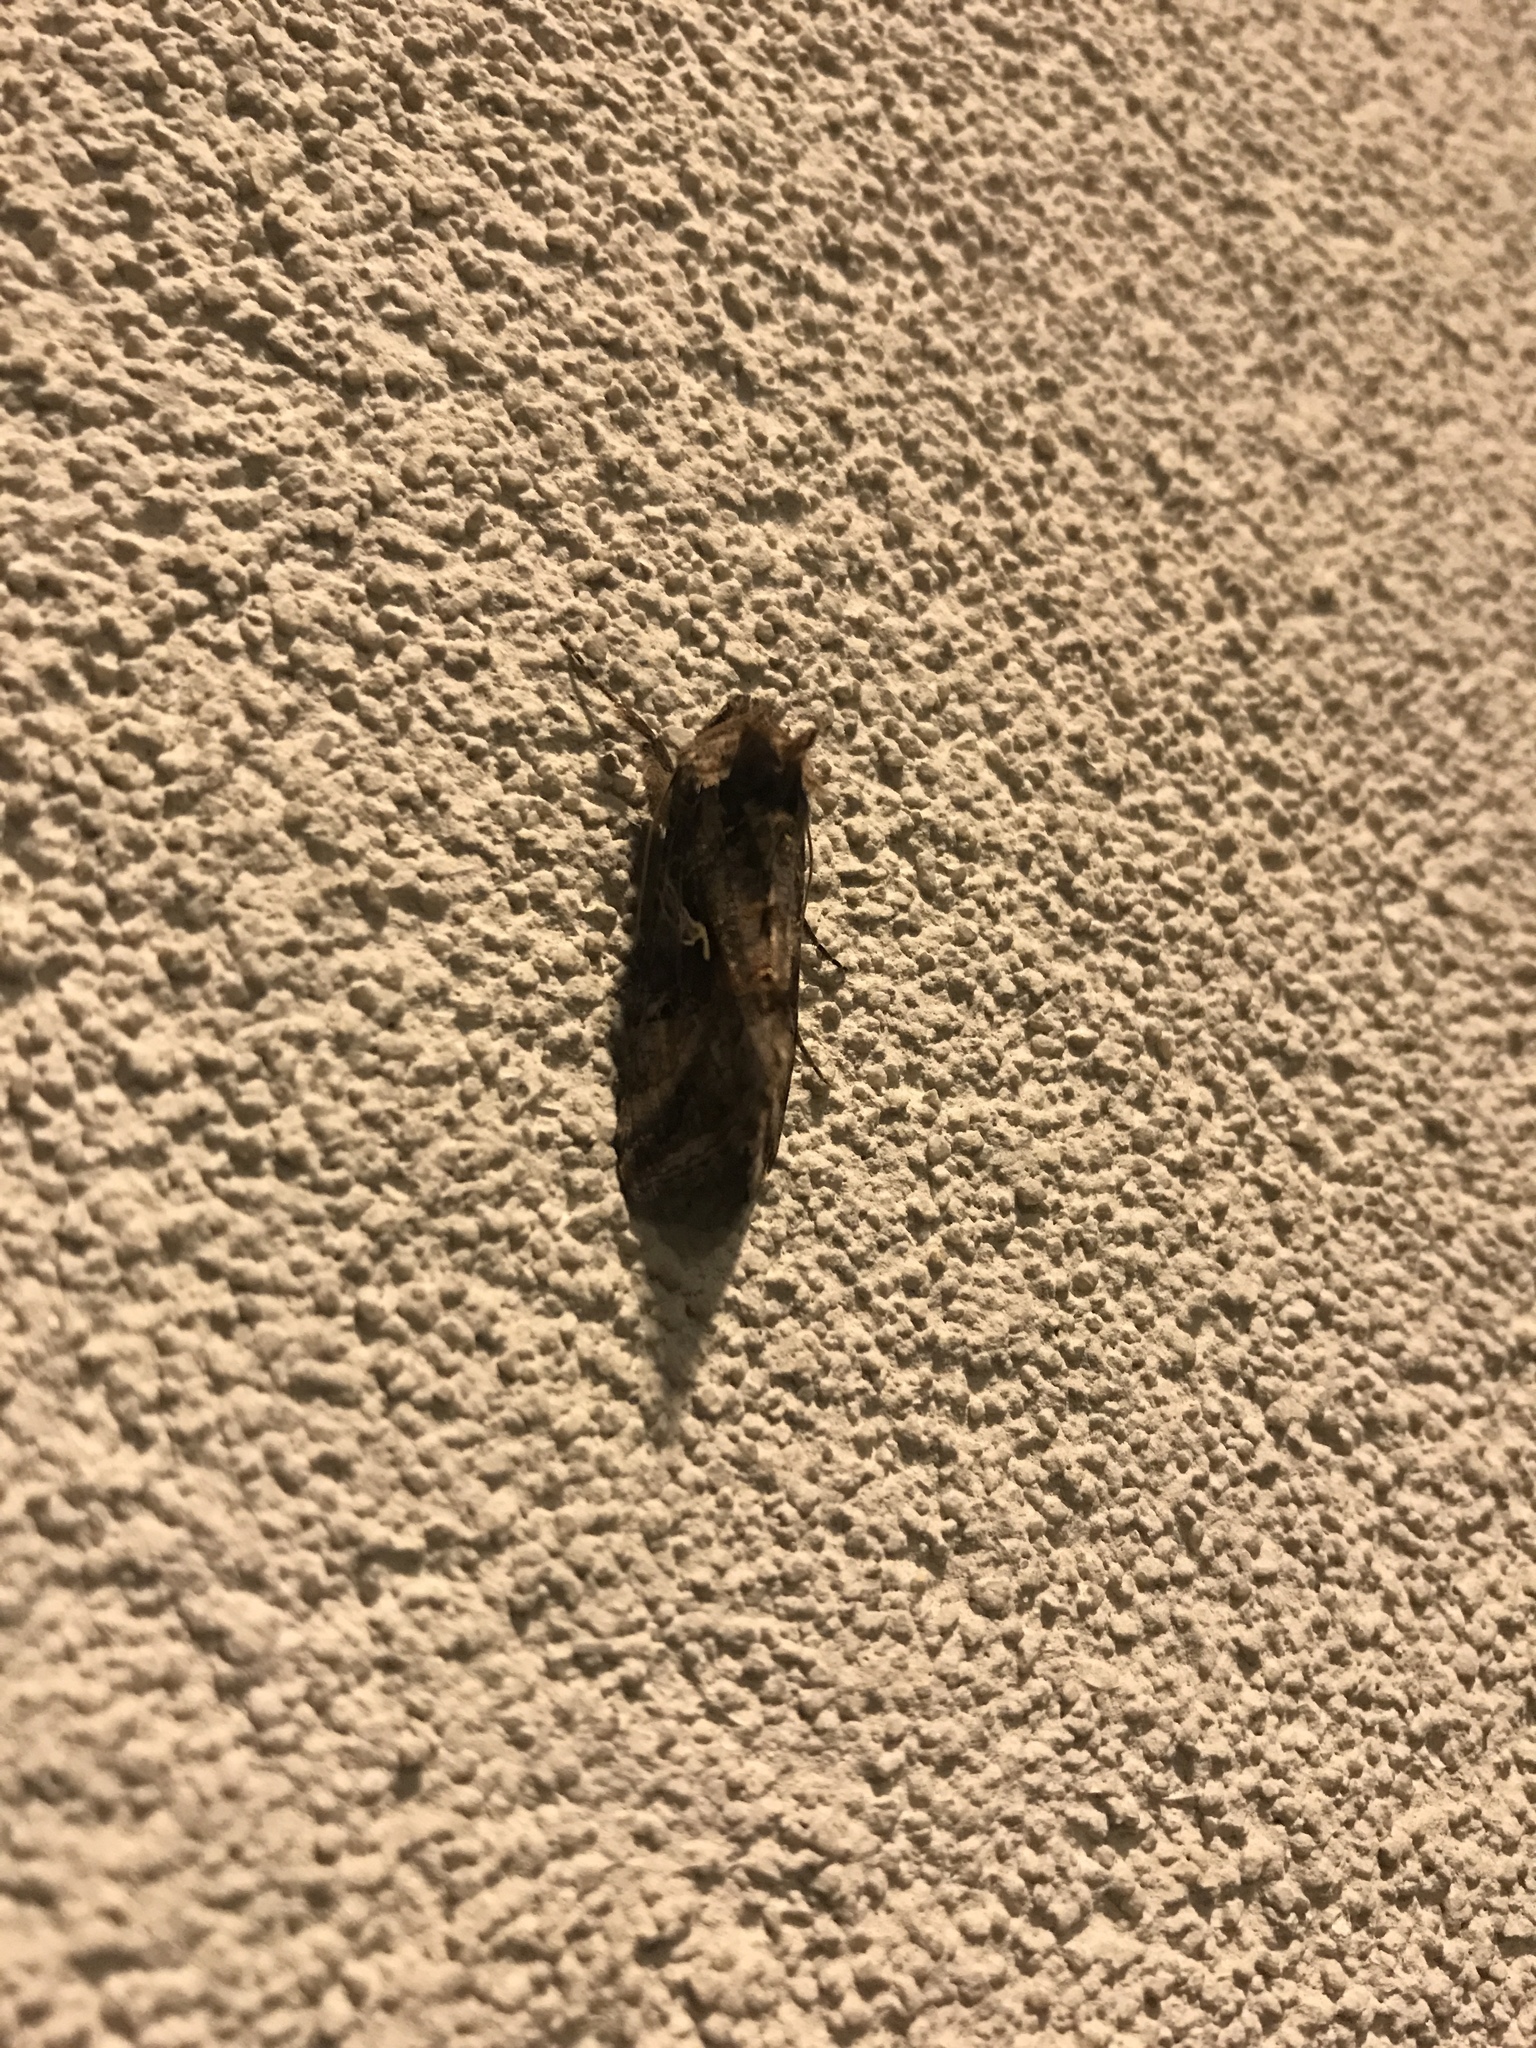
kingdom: Animalia
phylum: Arthropoda
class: Insecta
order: Lepidoptera
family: Noctuidae
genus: Autographa
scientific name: Autographa gamma
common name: Silver y
